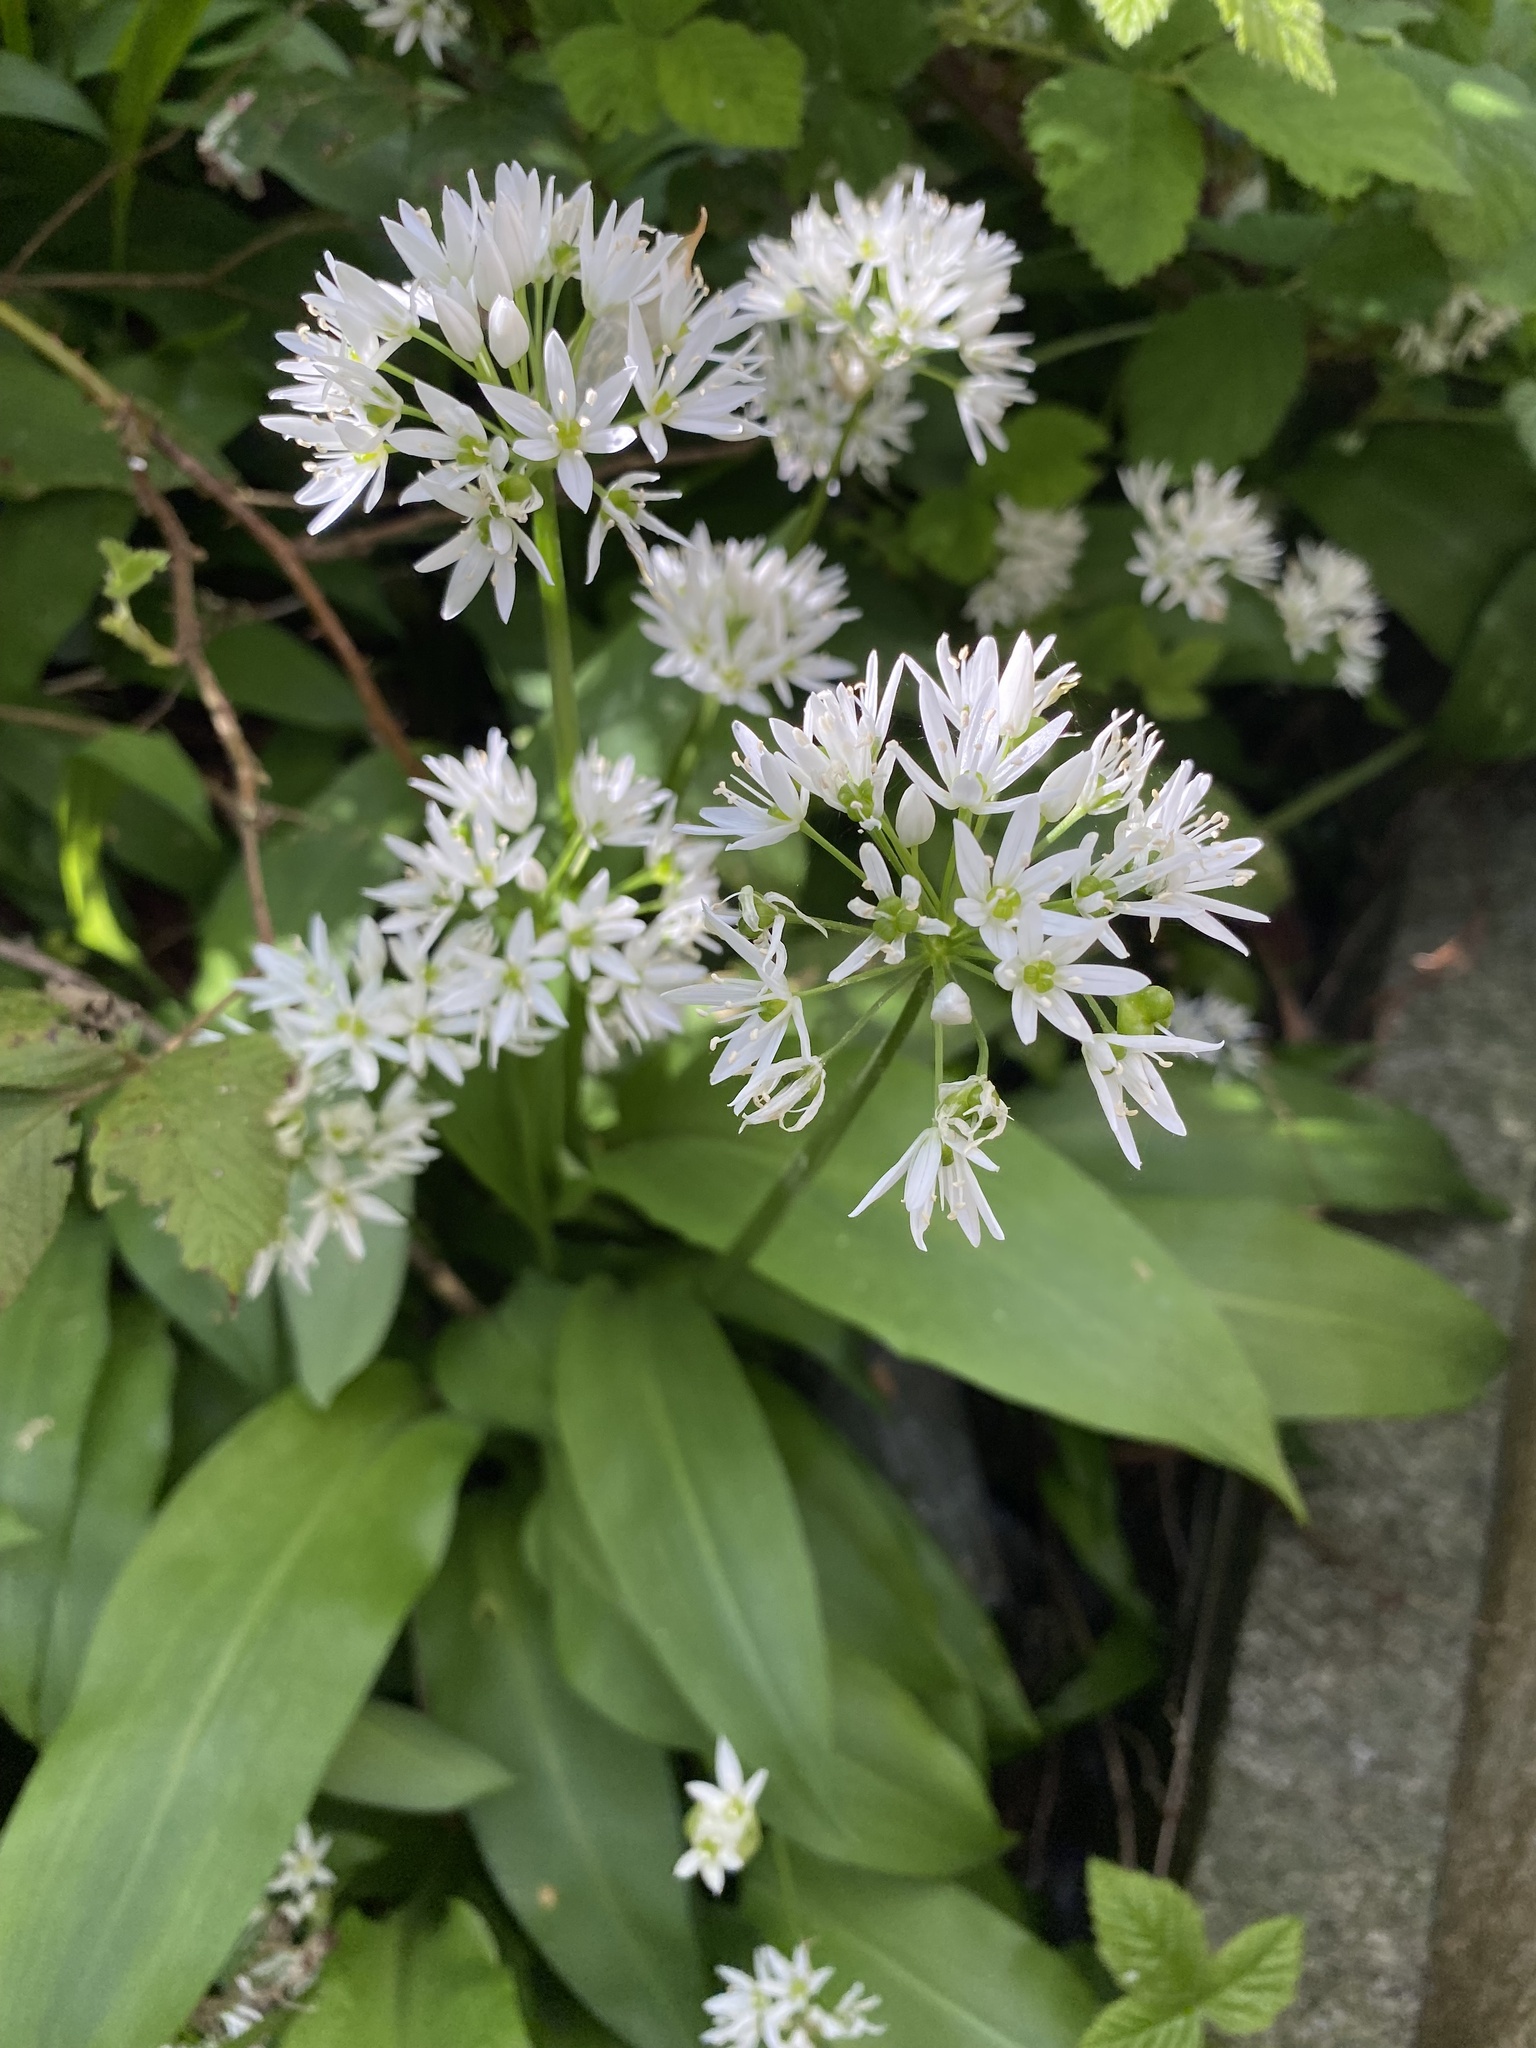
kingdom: Plantae
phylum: Tracheophyta
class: Liliopsida
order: Asparagales
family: Amaryllidaceae
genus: Allium
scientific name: Allium ursinum
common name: Ramsons
